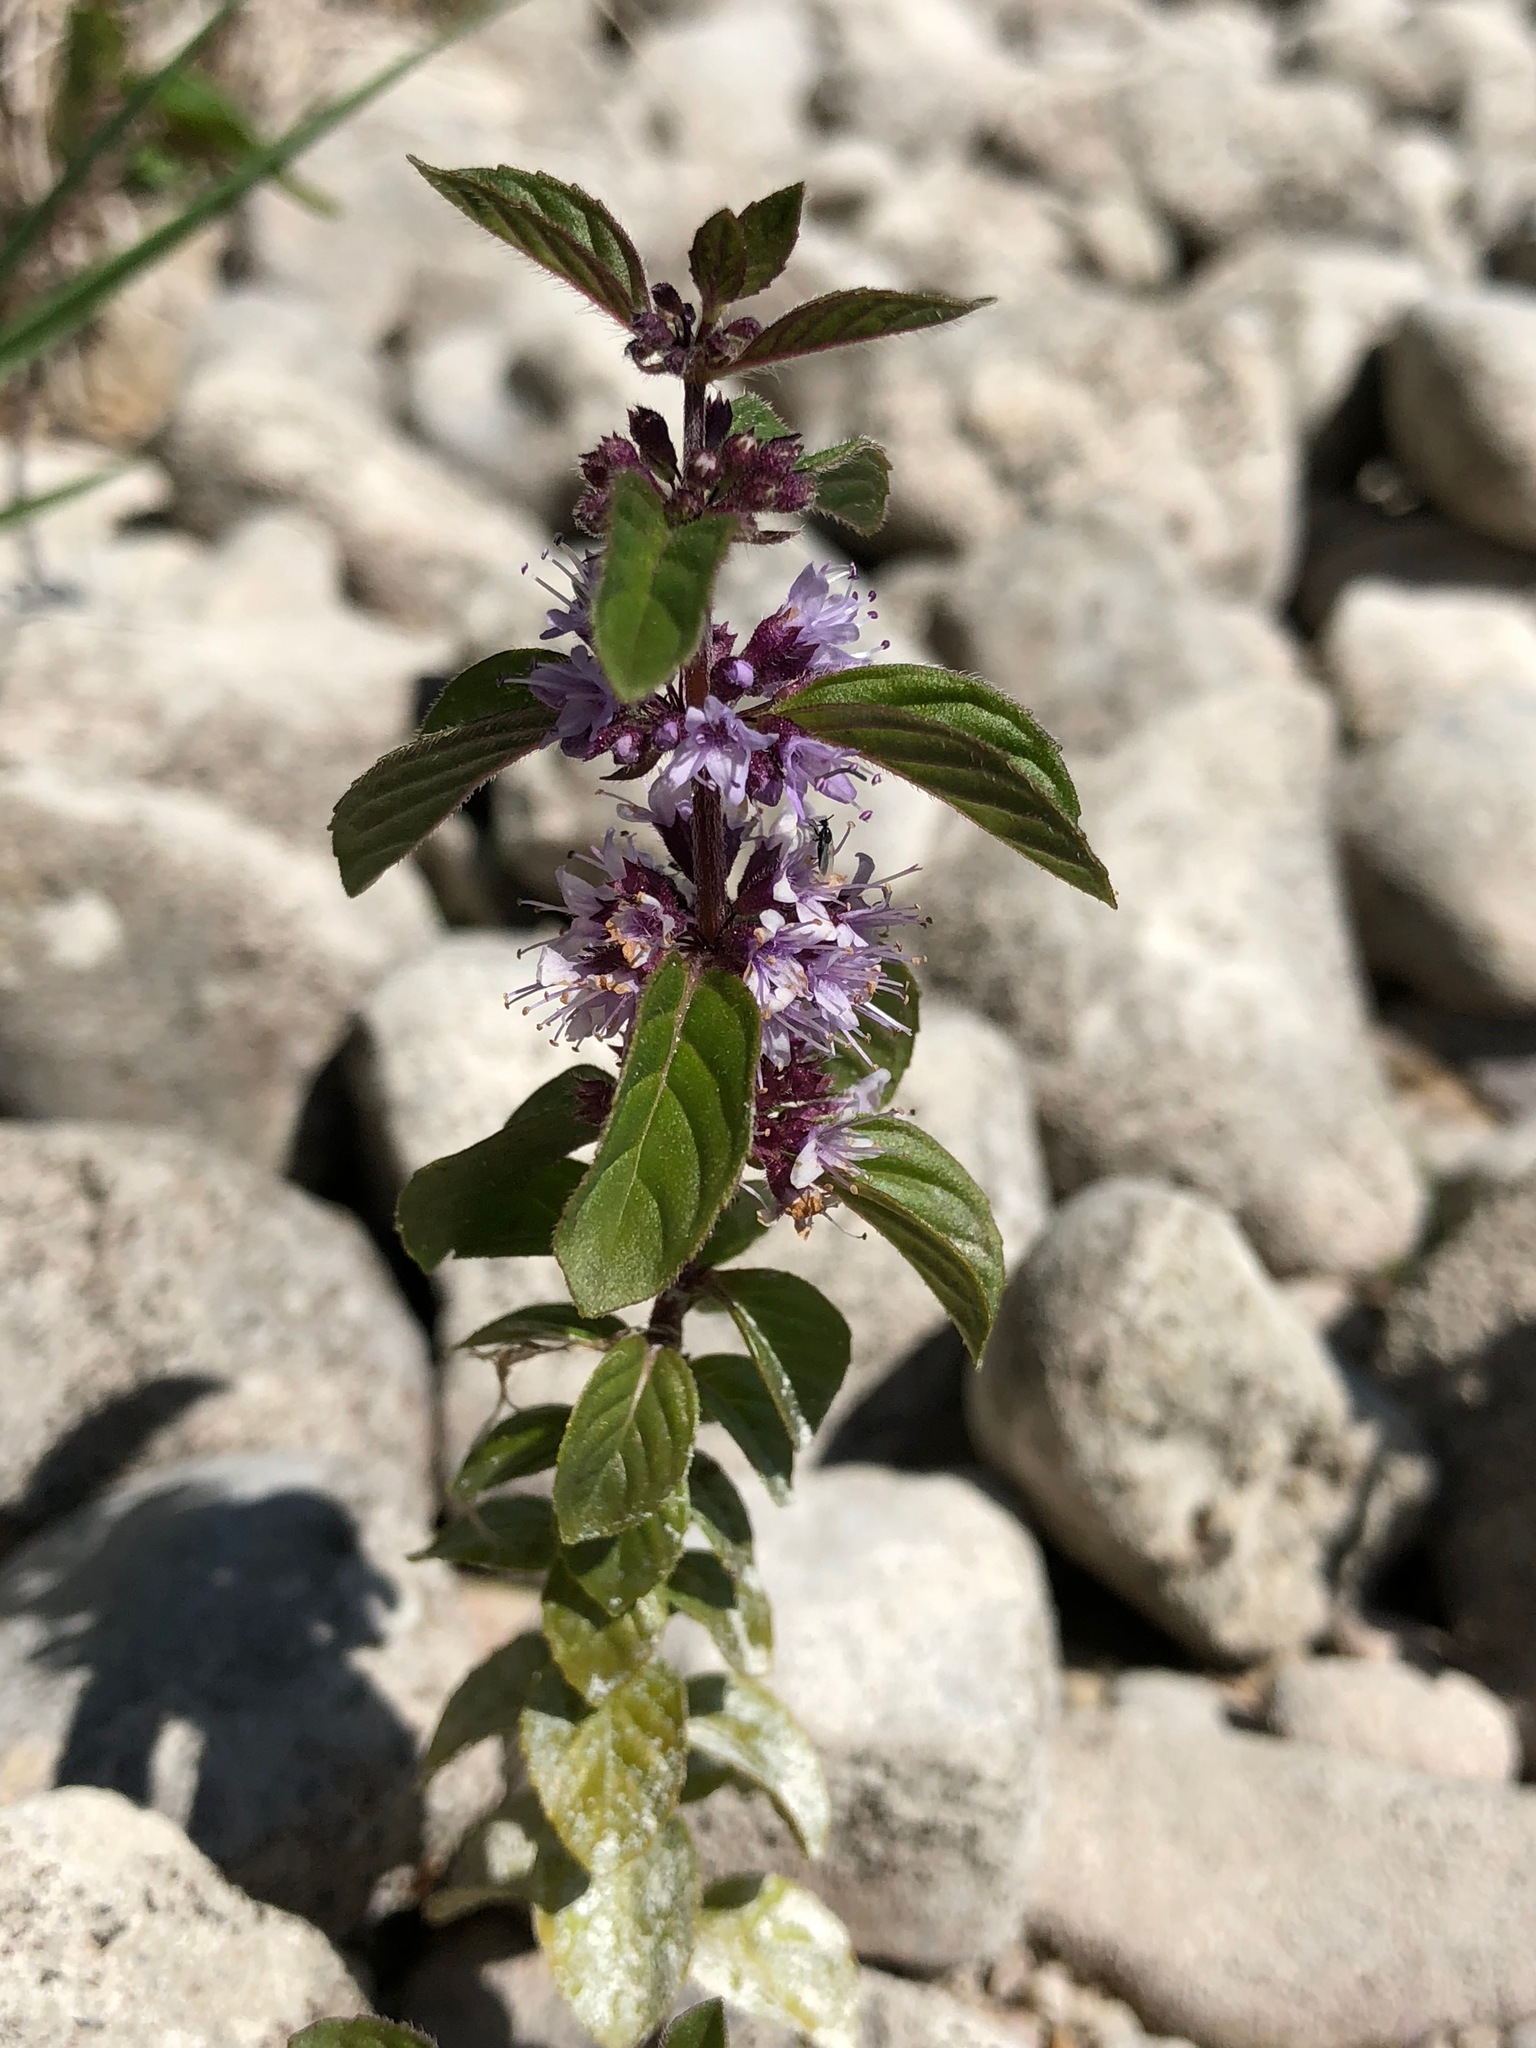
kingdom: Plantae
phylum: Tracheophyta
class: Magnoliopsida
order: Lamiales
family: Lamiaceae
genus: Mentha
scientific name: Mentha arvensis
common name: Corn mint
